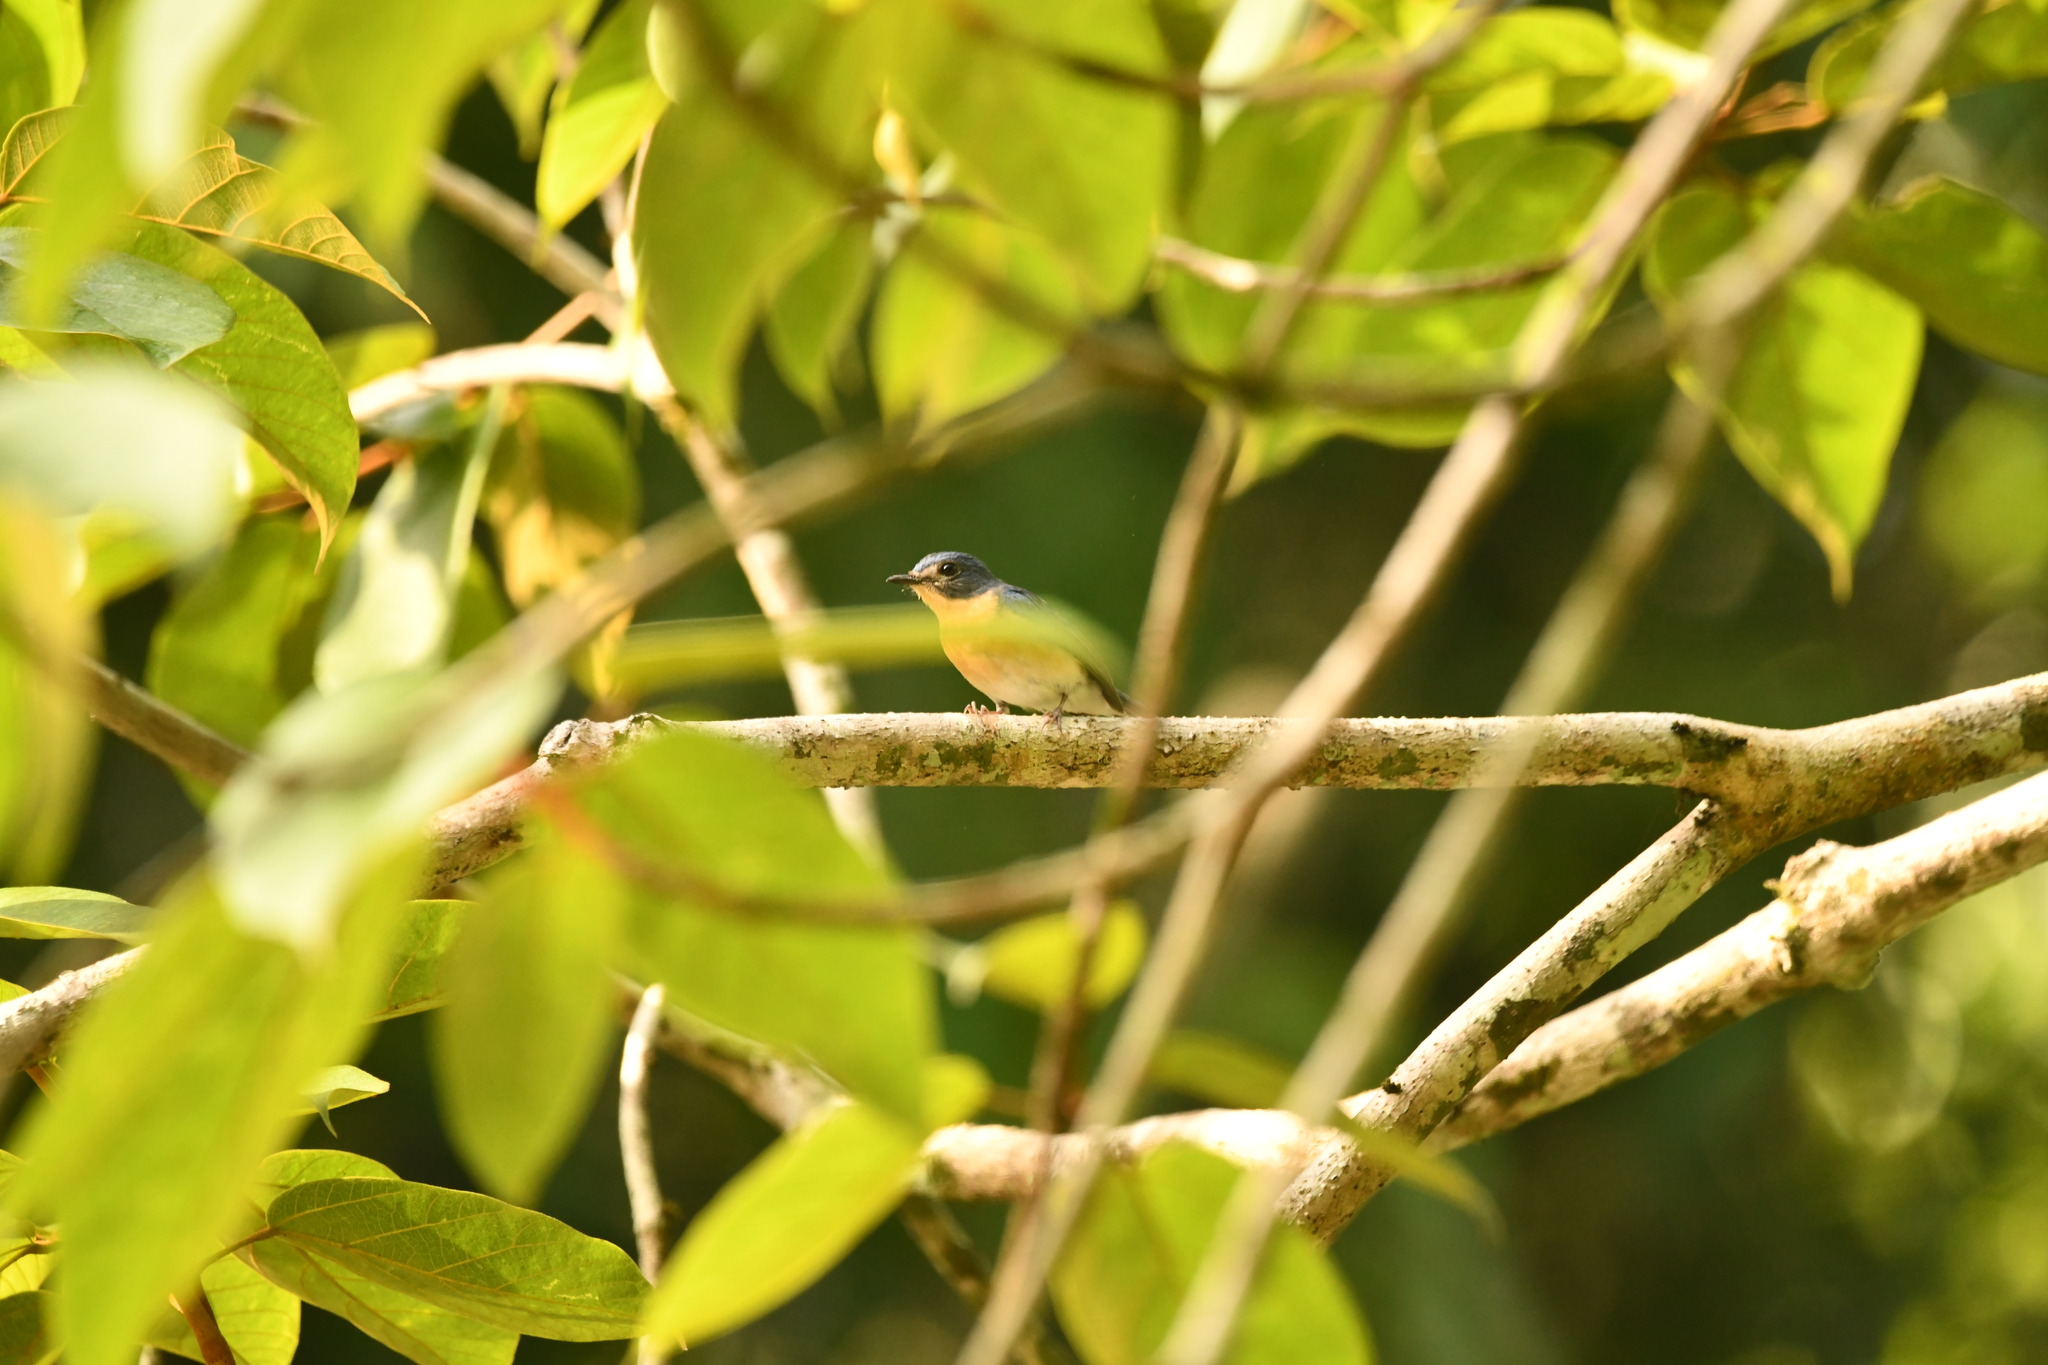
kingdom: Animalia
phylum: Chordata
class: Aves
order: Passeriformes
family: Muscicapidae
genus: Cyornis
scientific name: Cyornis tickelliae
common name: Tickell's blue flycatcher
